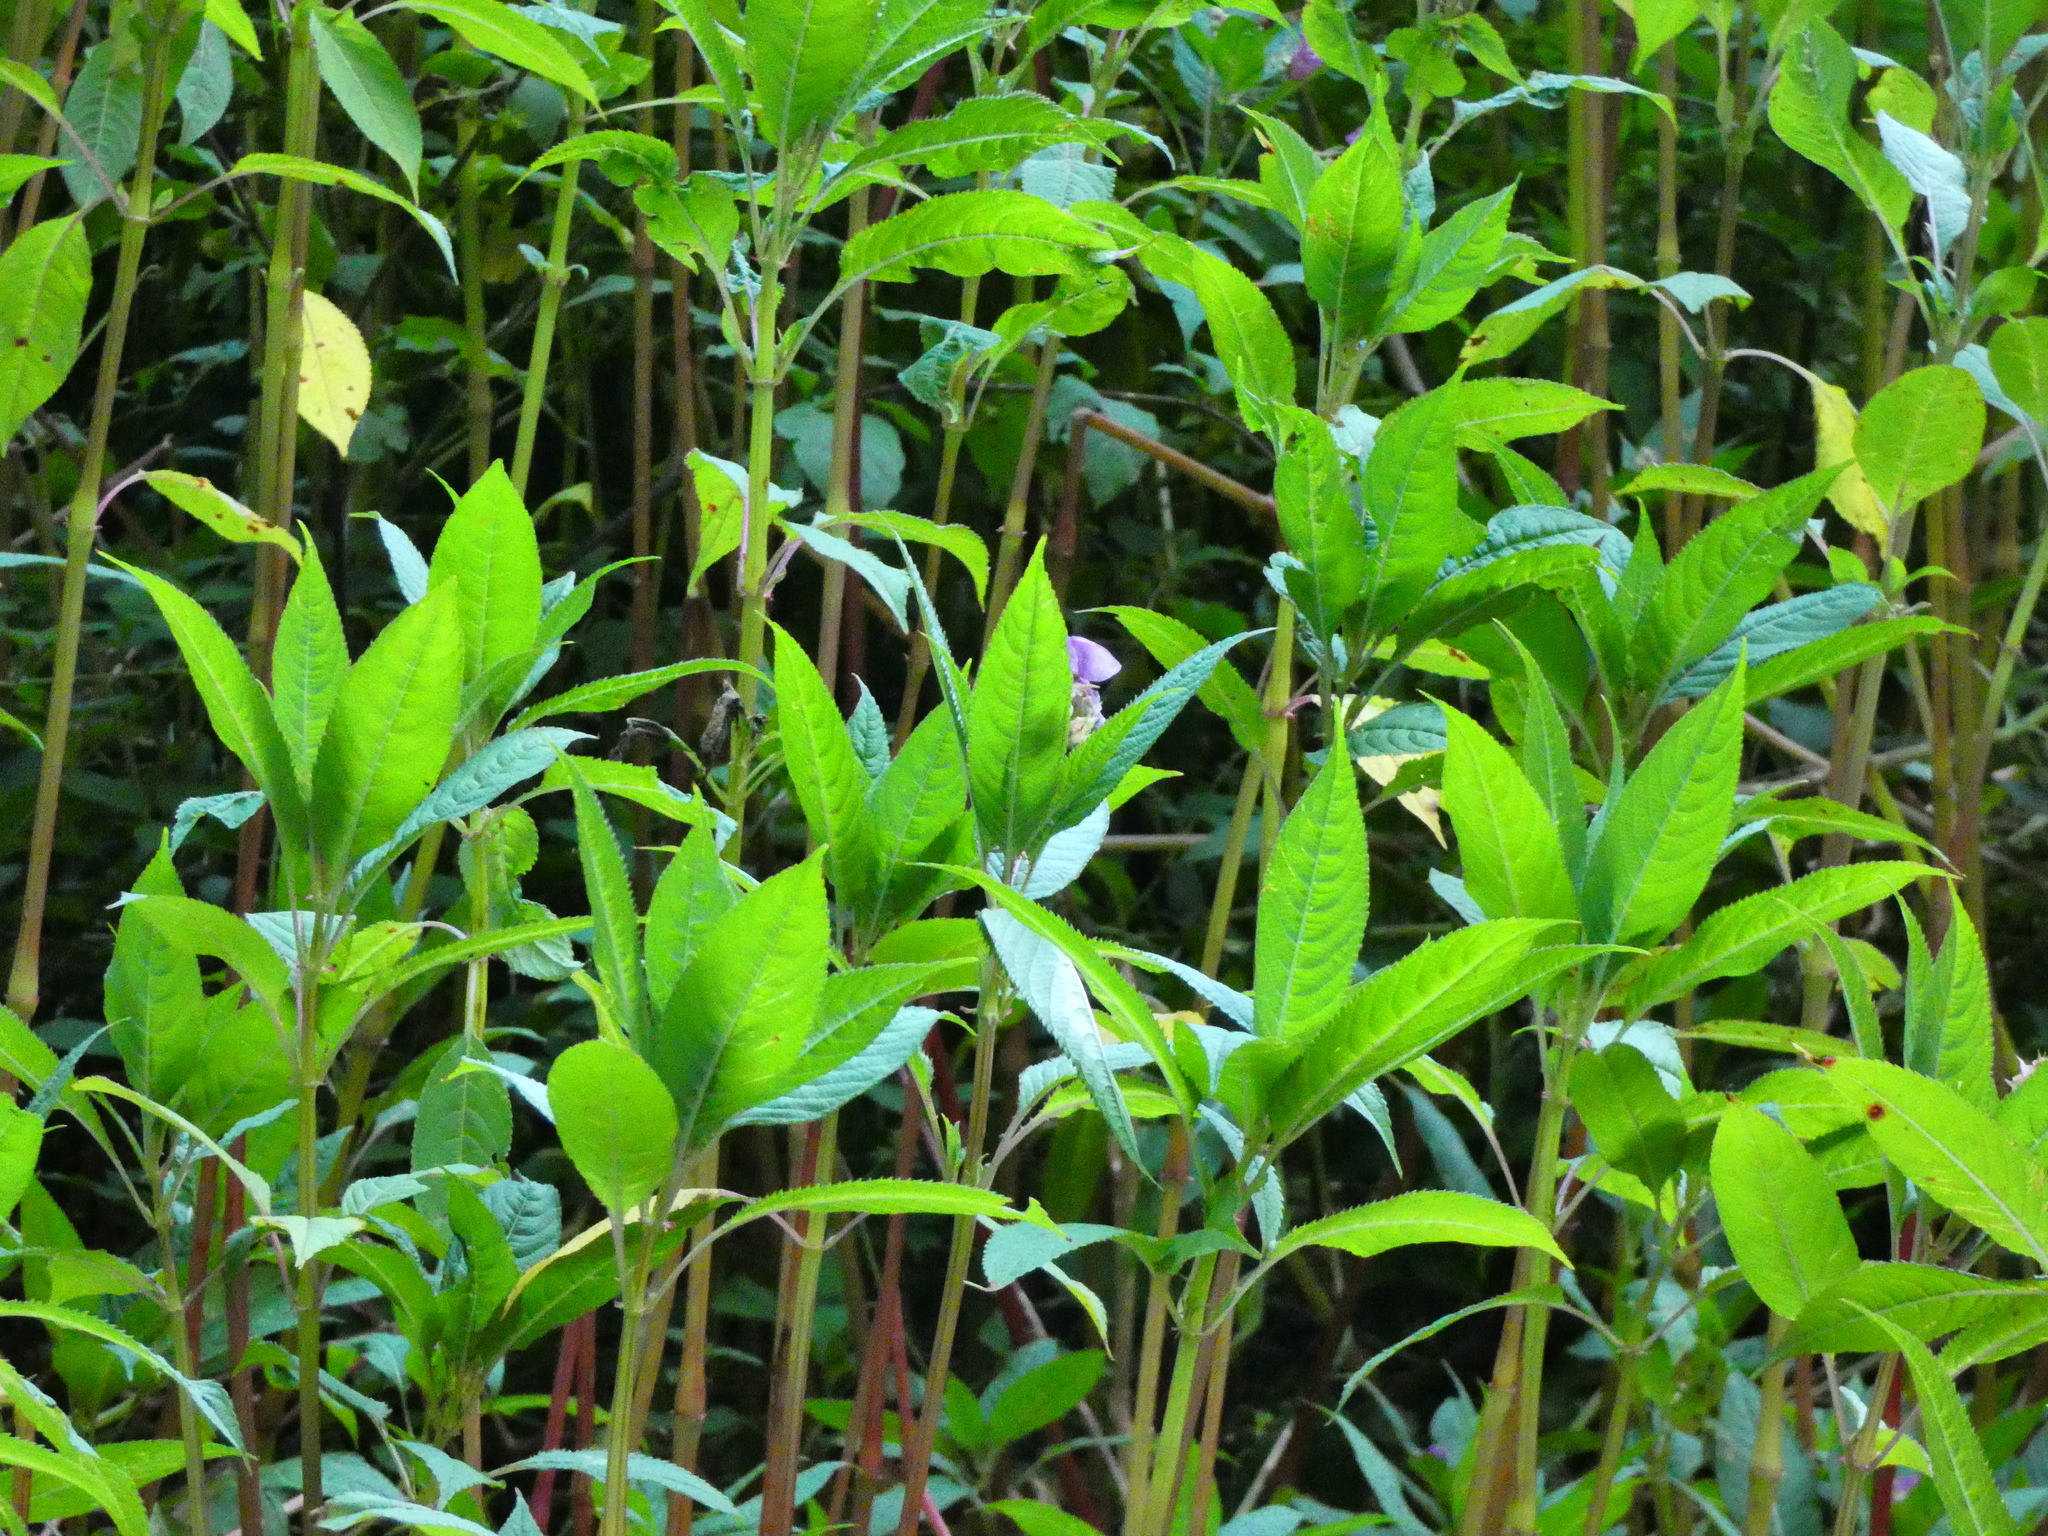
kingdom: Plantae
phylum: Tracheophyta
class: Magnoliopsida
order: Ericales
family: Balsaminaceae
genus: Impatiens
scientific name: Impatiens glandulifera
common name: Himalayan balsam
